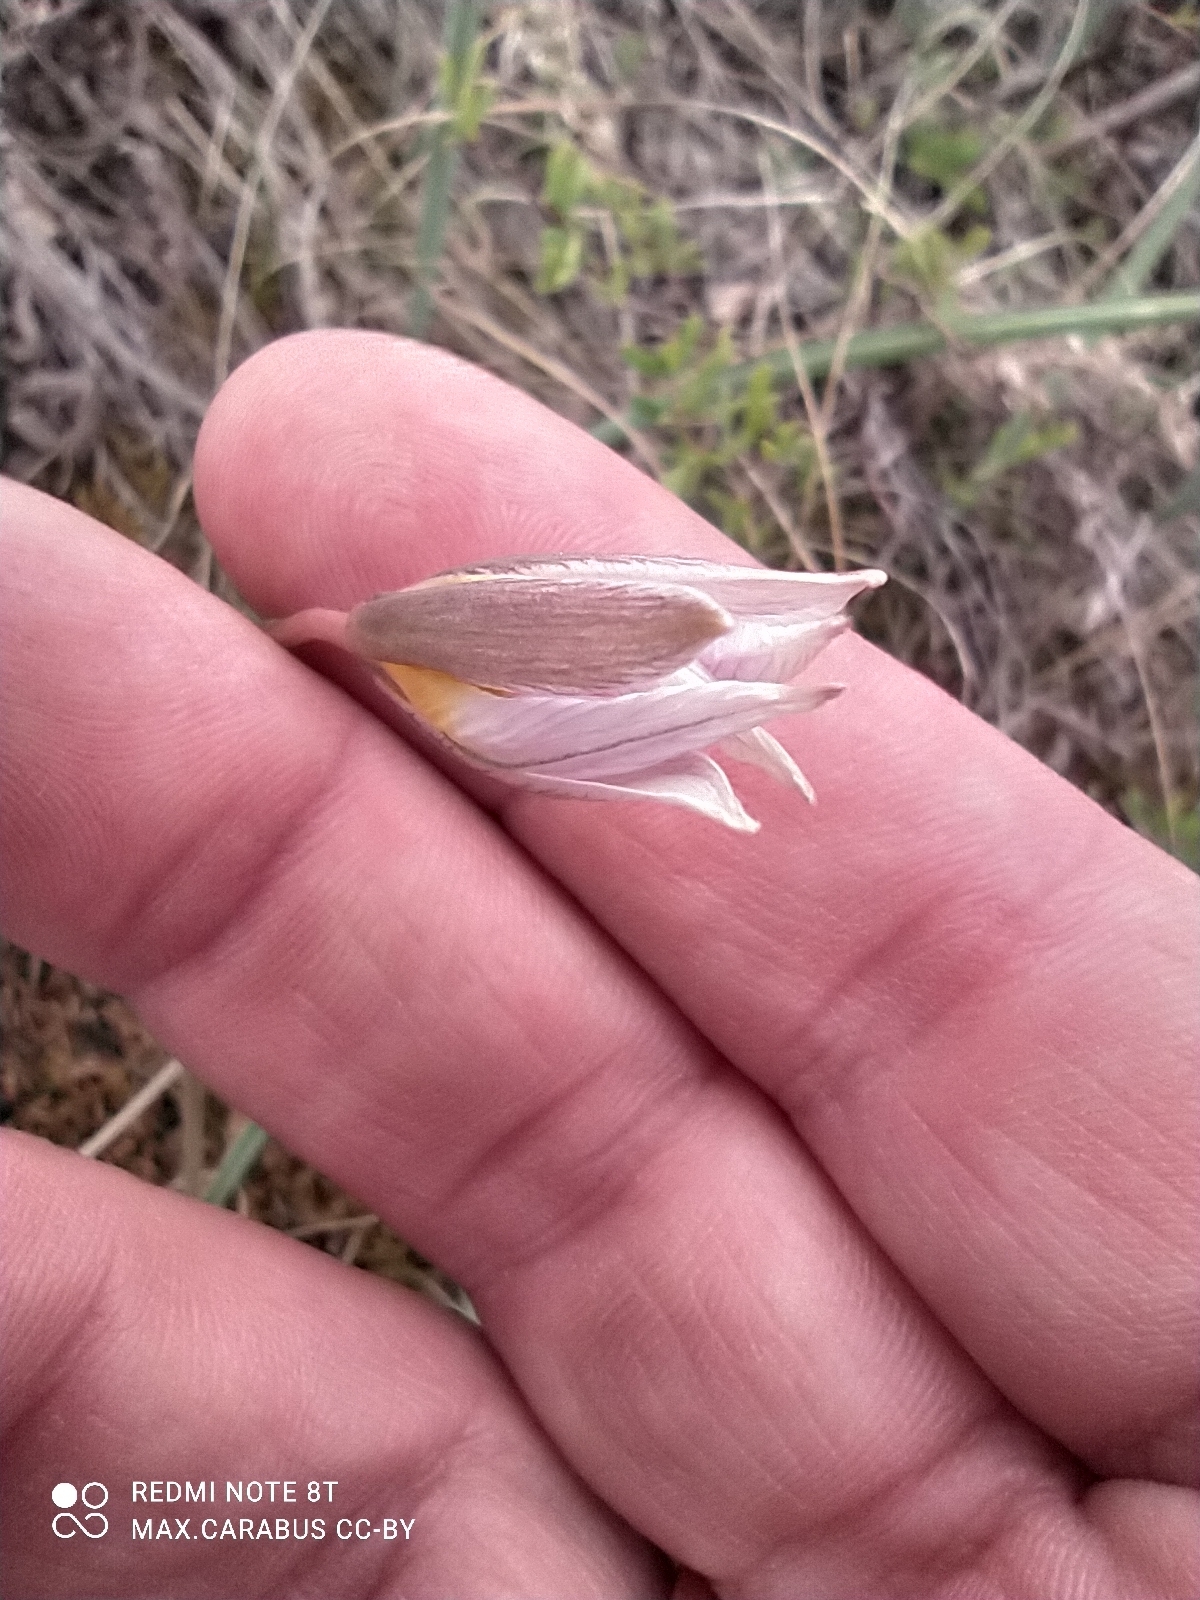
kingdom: Plantae
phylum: Tracheophyta
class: Liliopsida
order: Liliales
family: Liliaceae
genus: Tulipa
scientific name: Tulipa patens
